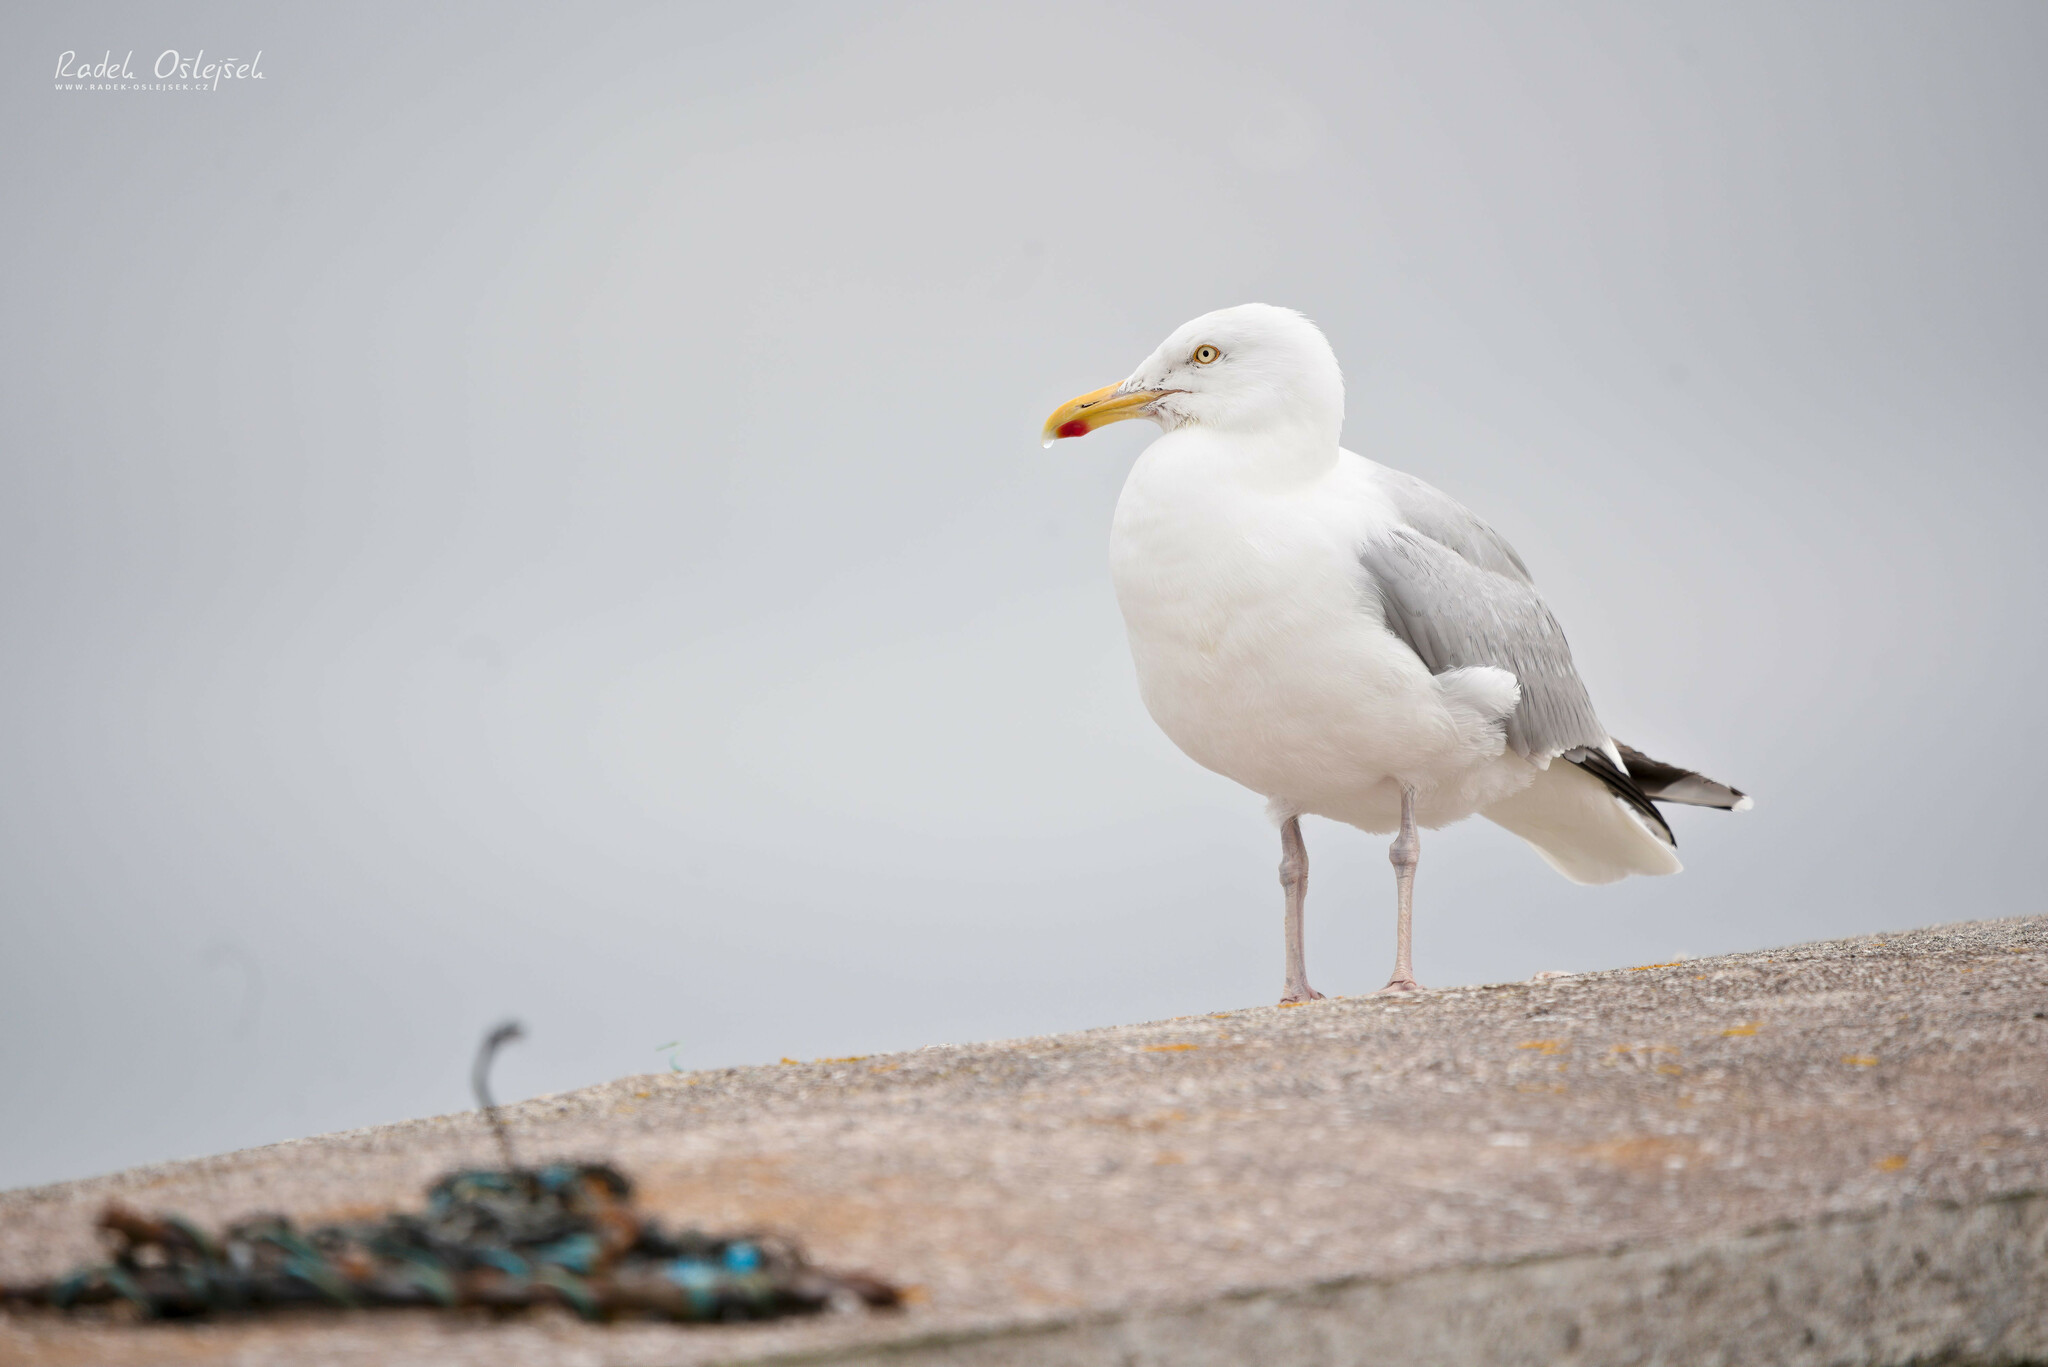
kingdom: Animalia
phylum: Chordata
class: Aves
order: Charadriiformes
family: Laridae
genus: Larus
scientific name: Larus argentatus
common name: Herring gull
